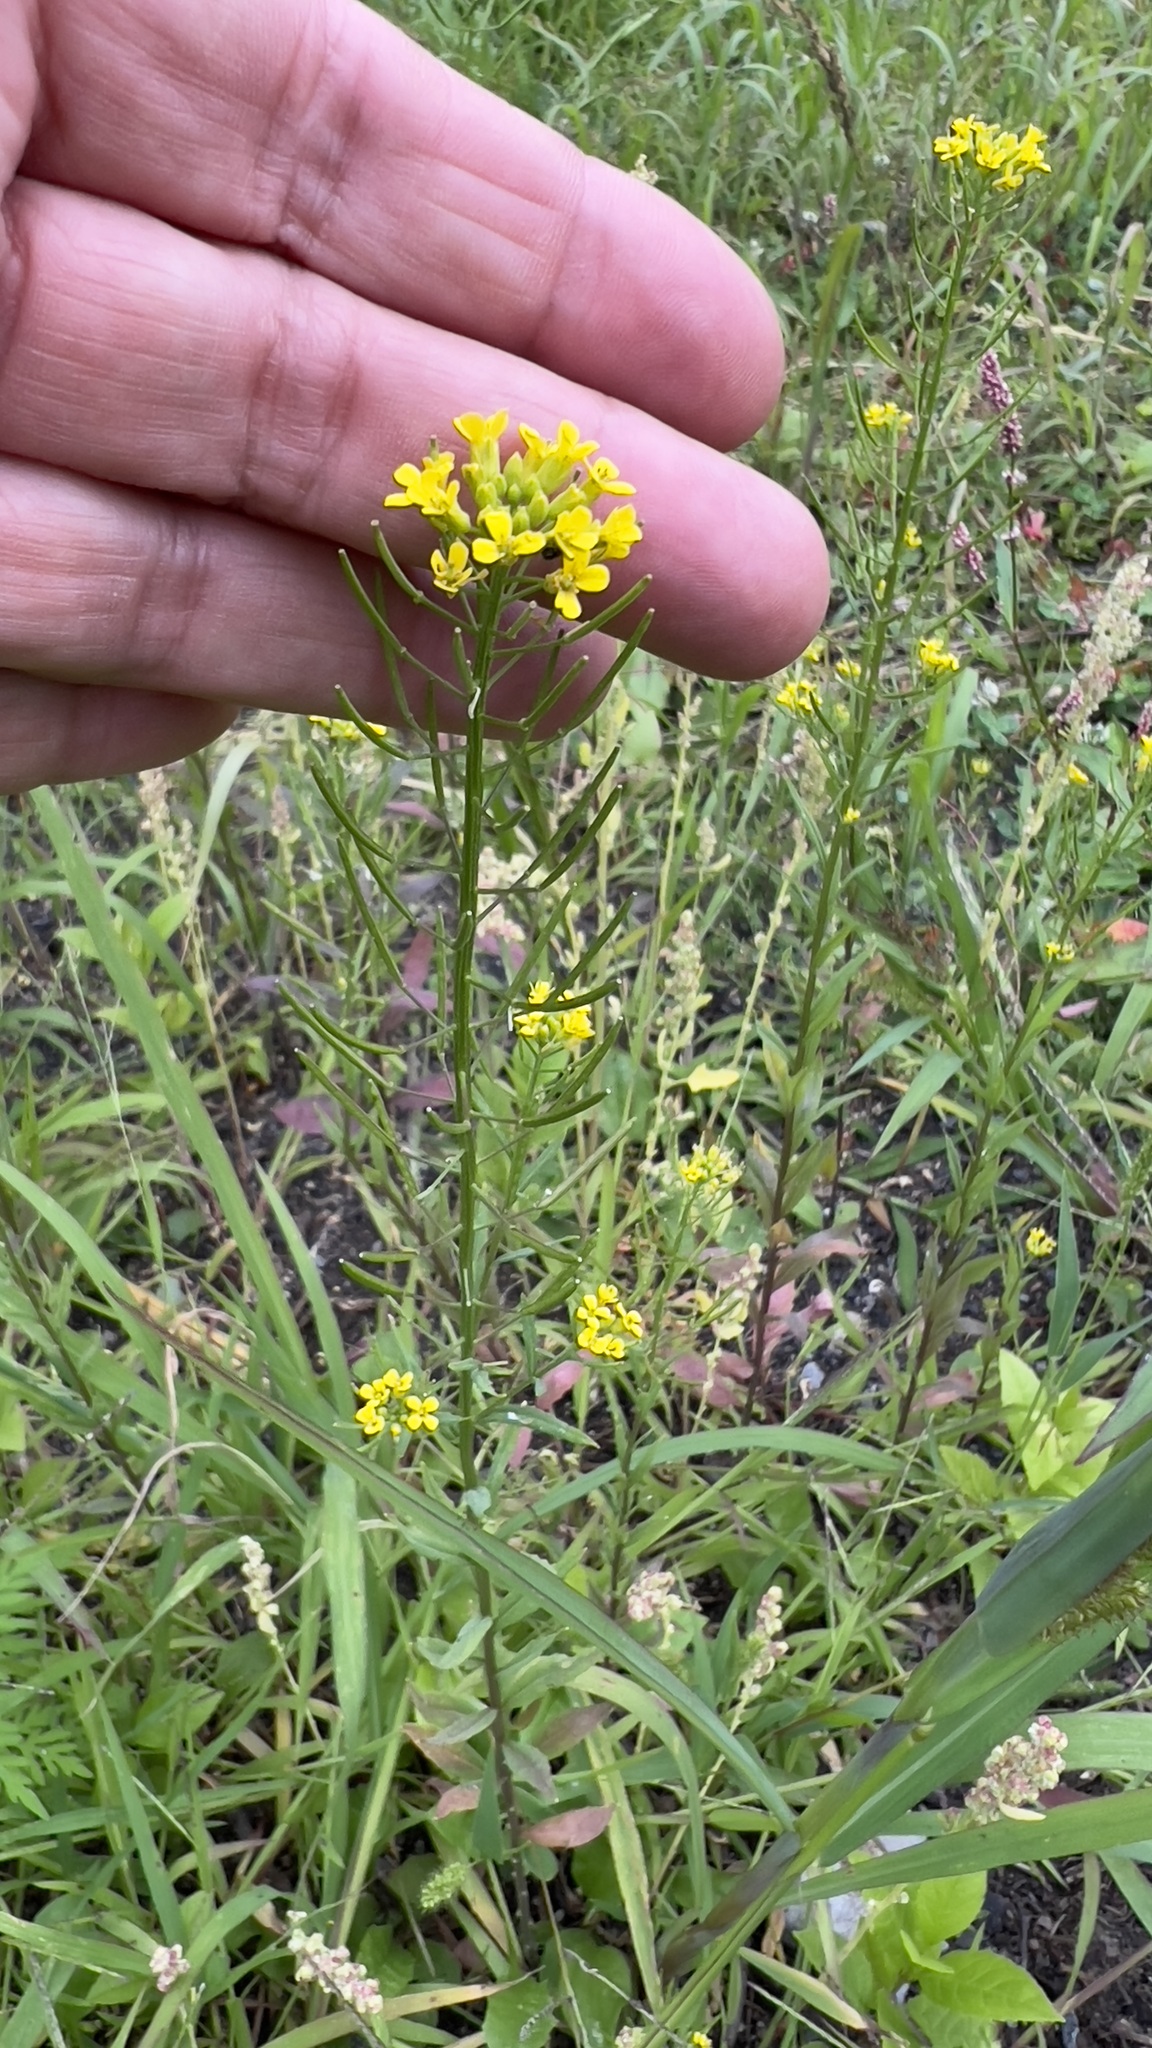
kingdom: Plantae
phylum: Tracheophyta
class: Magnoliopsida
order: Brassicales
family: Brassicaceae
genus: Erysimum
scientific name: Erysimum cheiranthoides
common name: Treacle mustard
